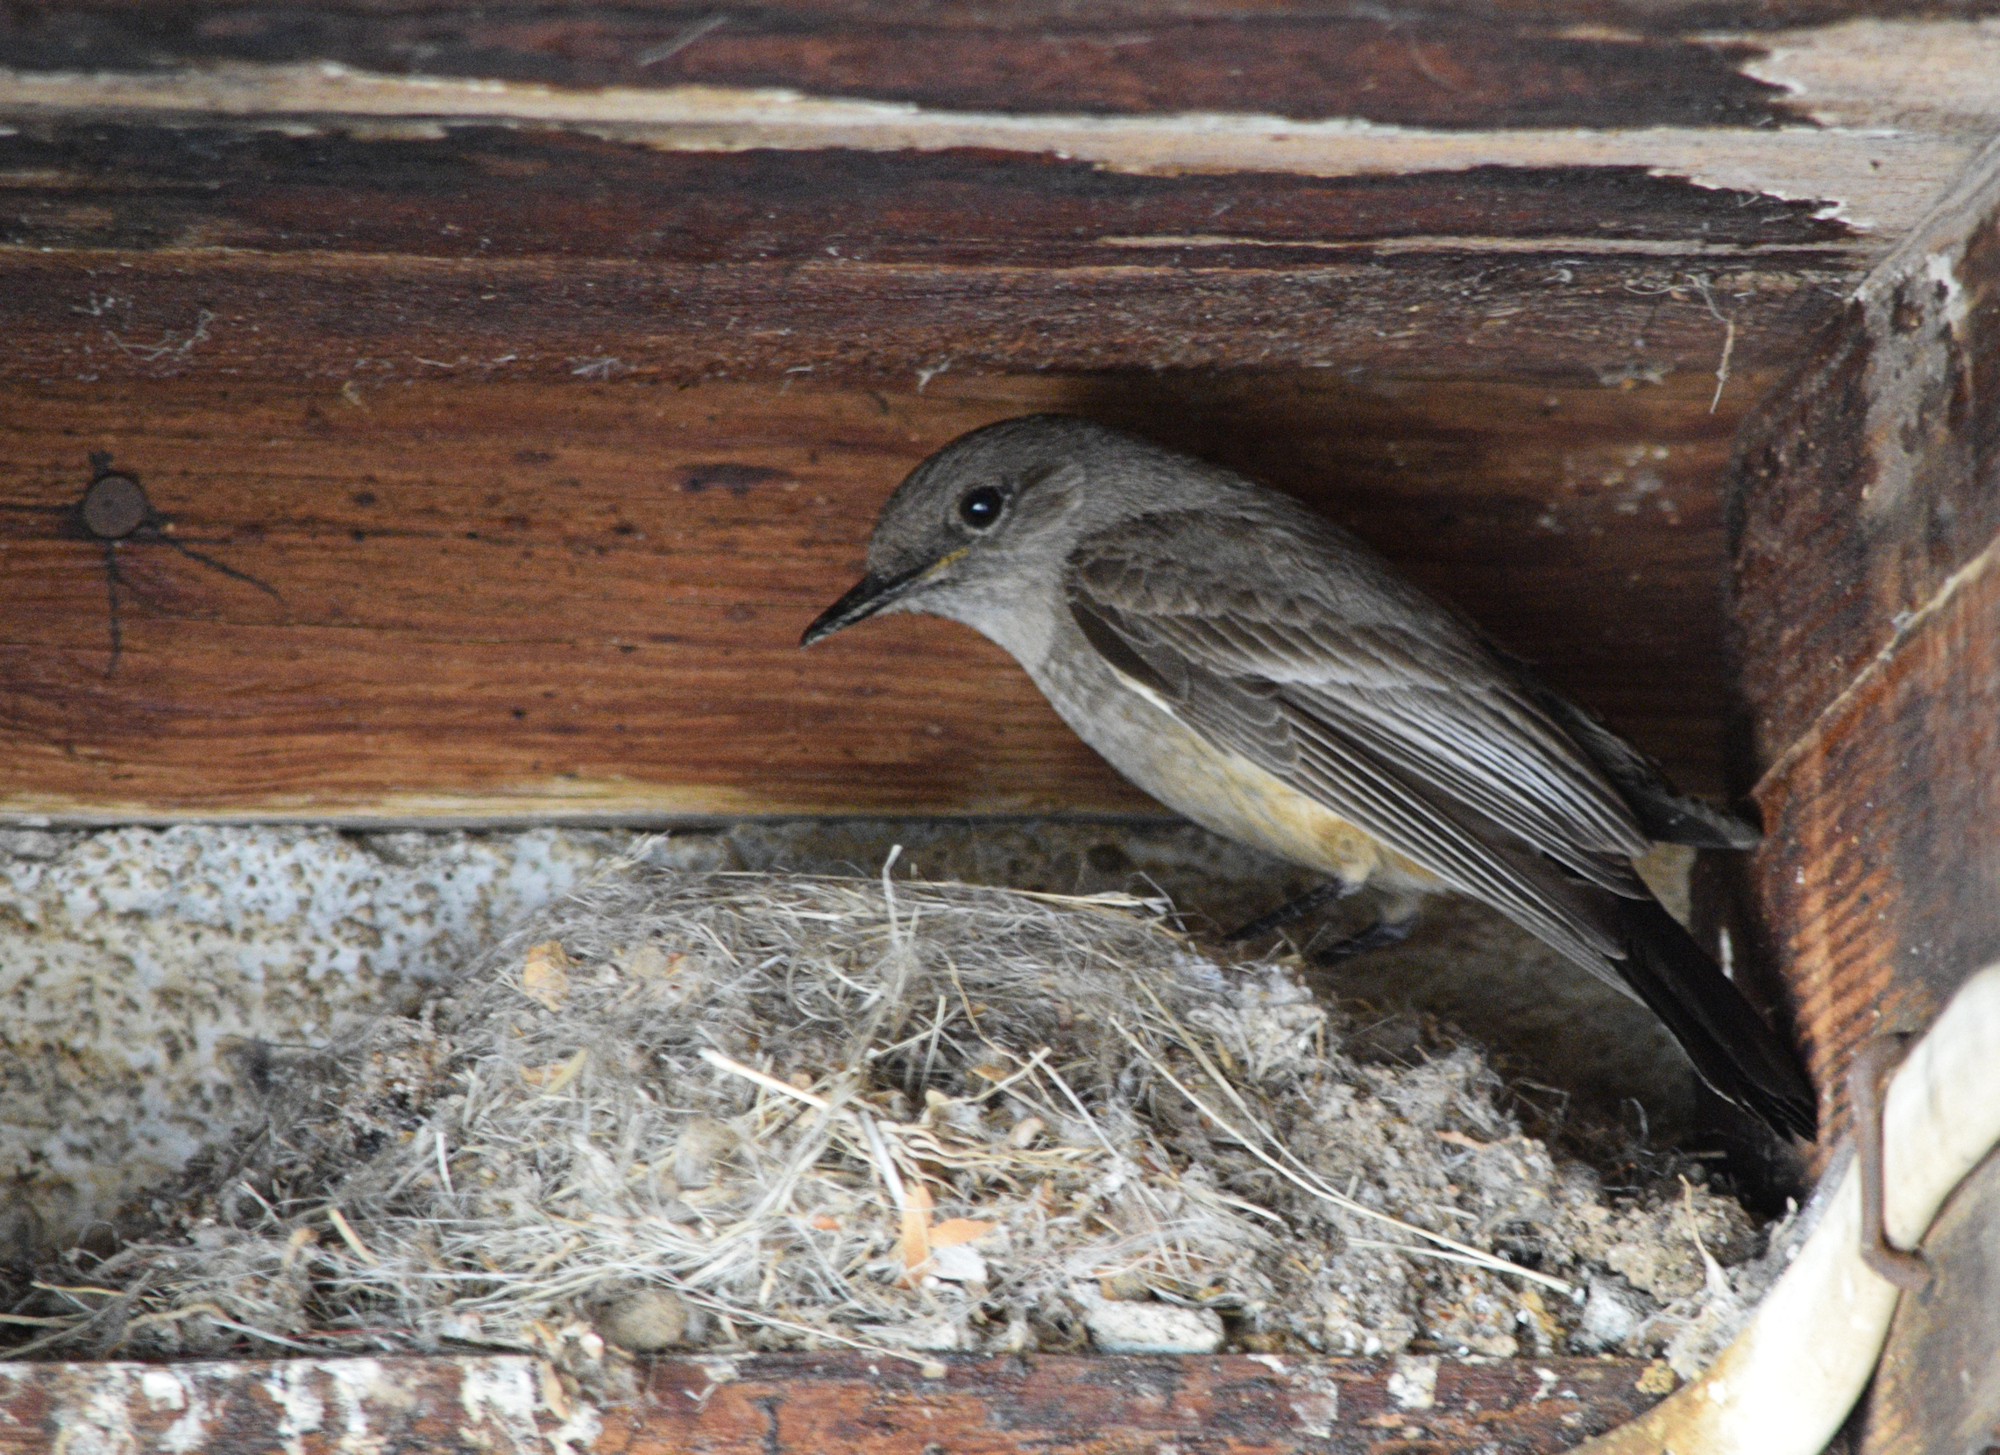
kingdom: Animalia
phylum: Chordata
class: Aves
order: Passeriformes
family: Tyrannidae
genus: Sayornis
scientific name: Sayornis saya
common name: Say's phoebe
